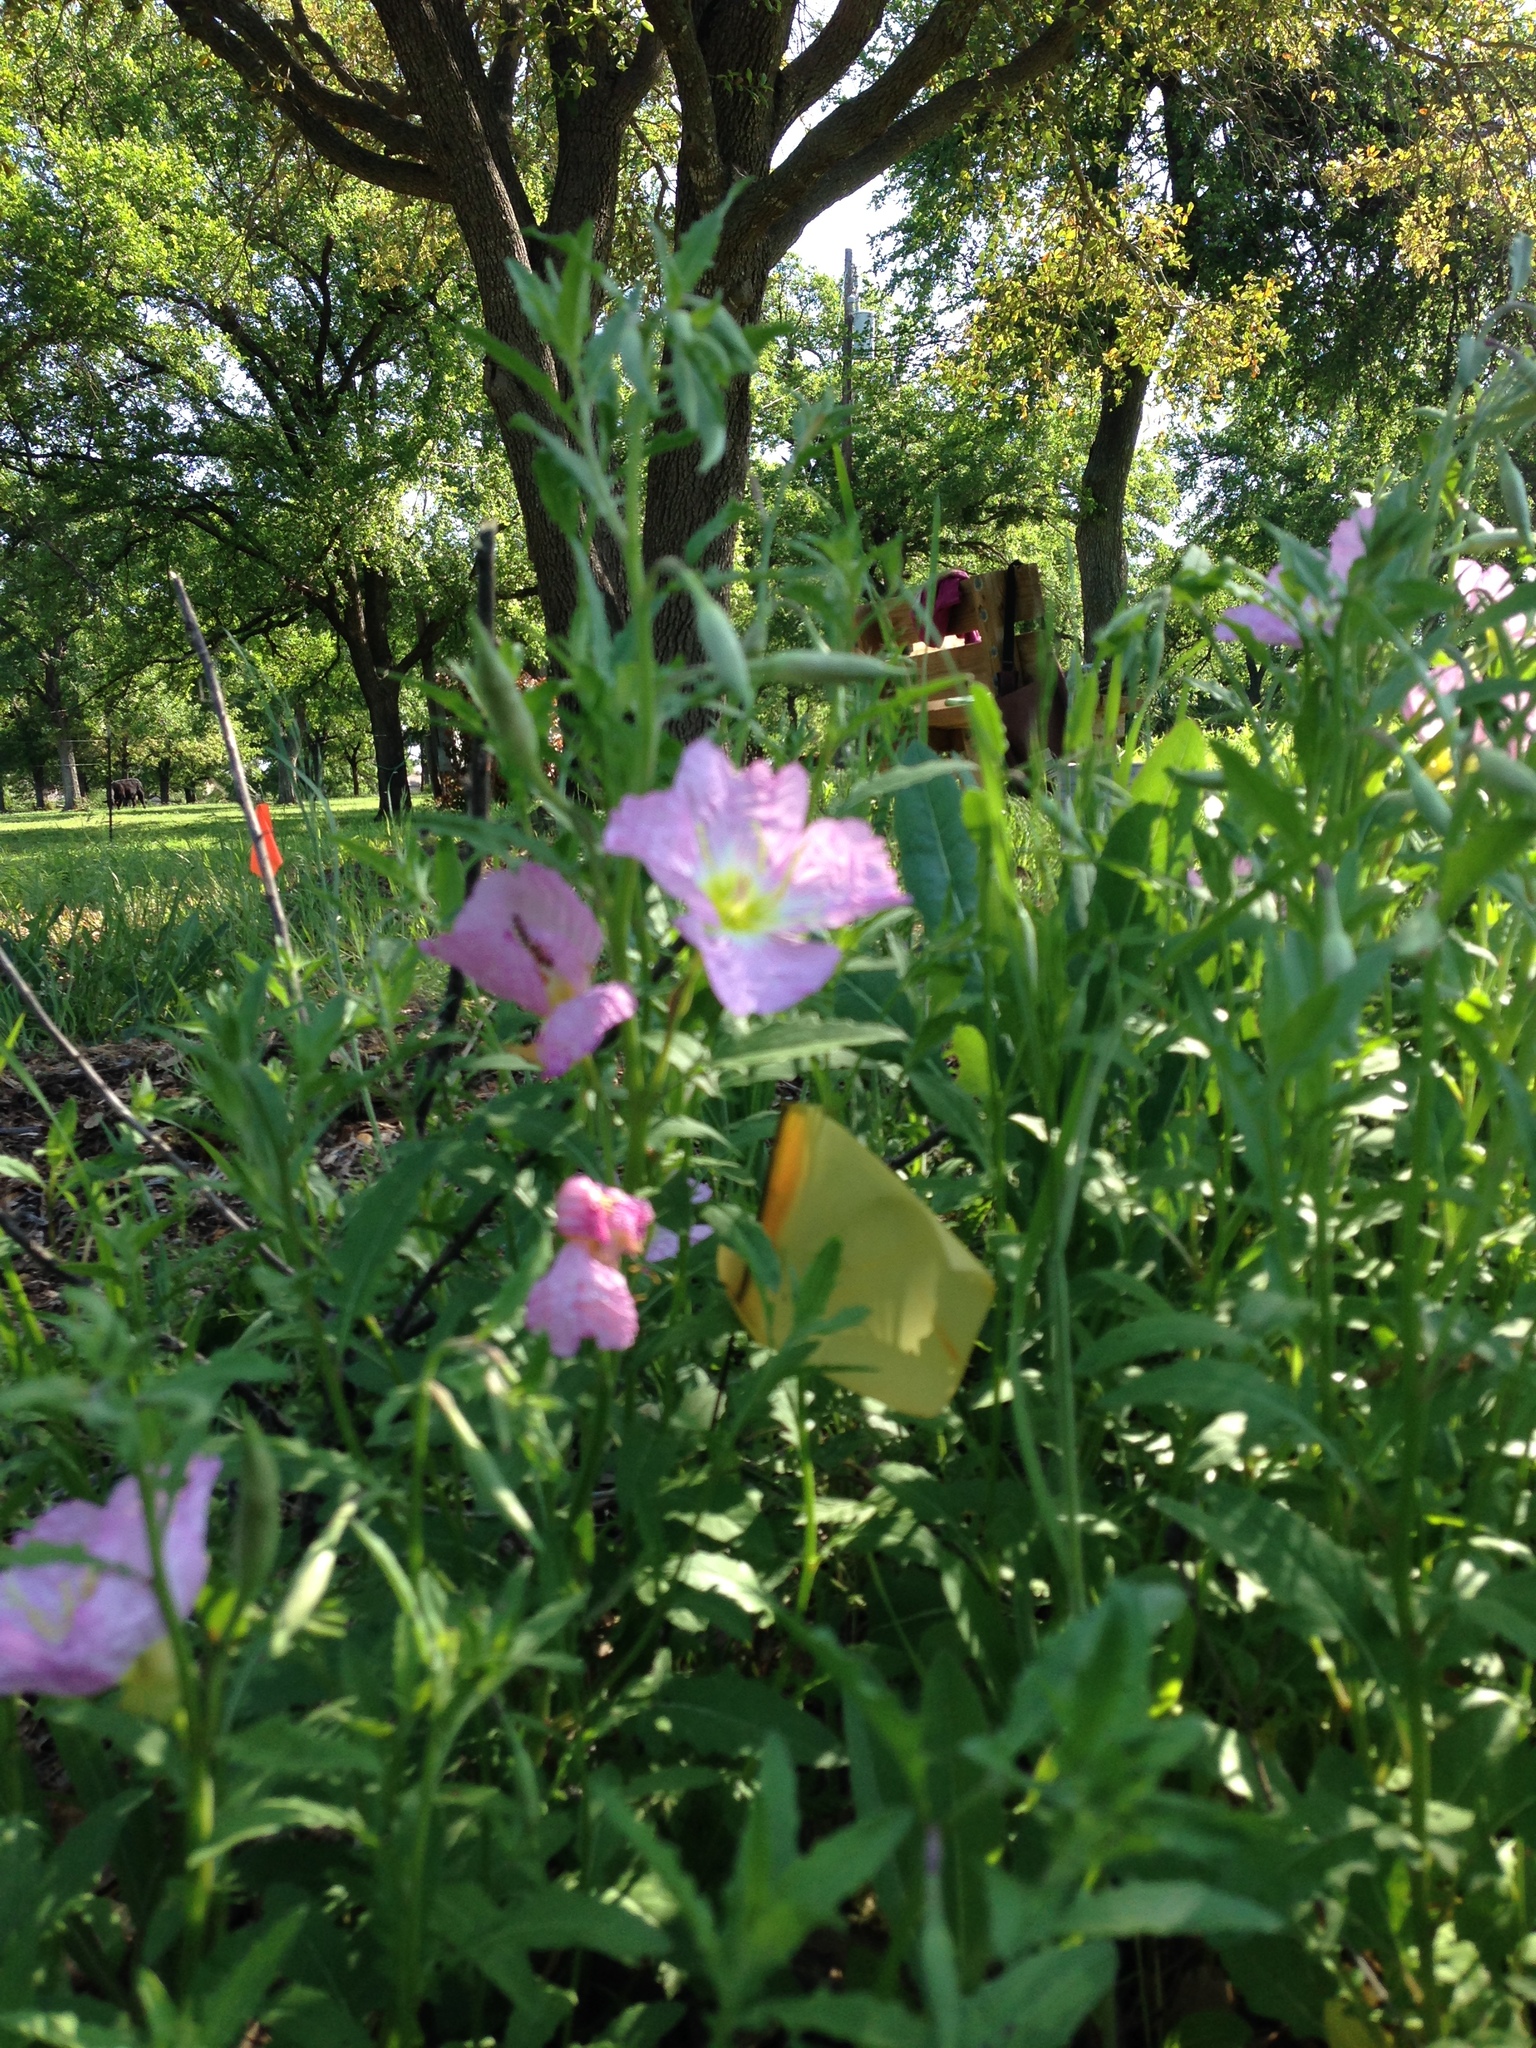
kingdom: Plantae
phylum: Tracheophyta
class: Magnoliopsida
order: Myrtales
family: Onagraceae
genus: Oenothera
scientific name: Oenothera speciosa
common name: White evening-primrose
